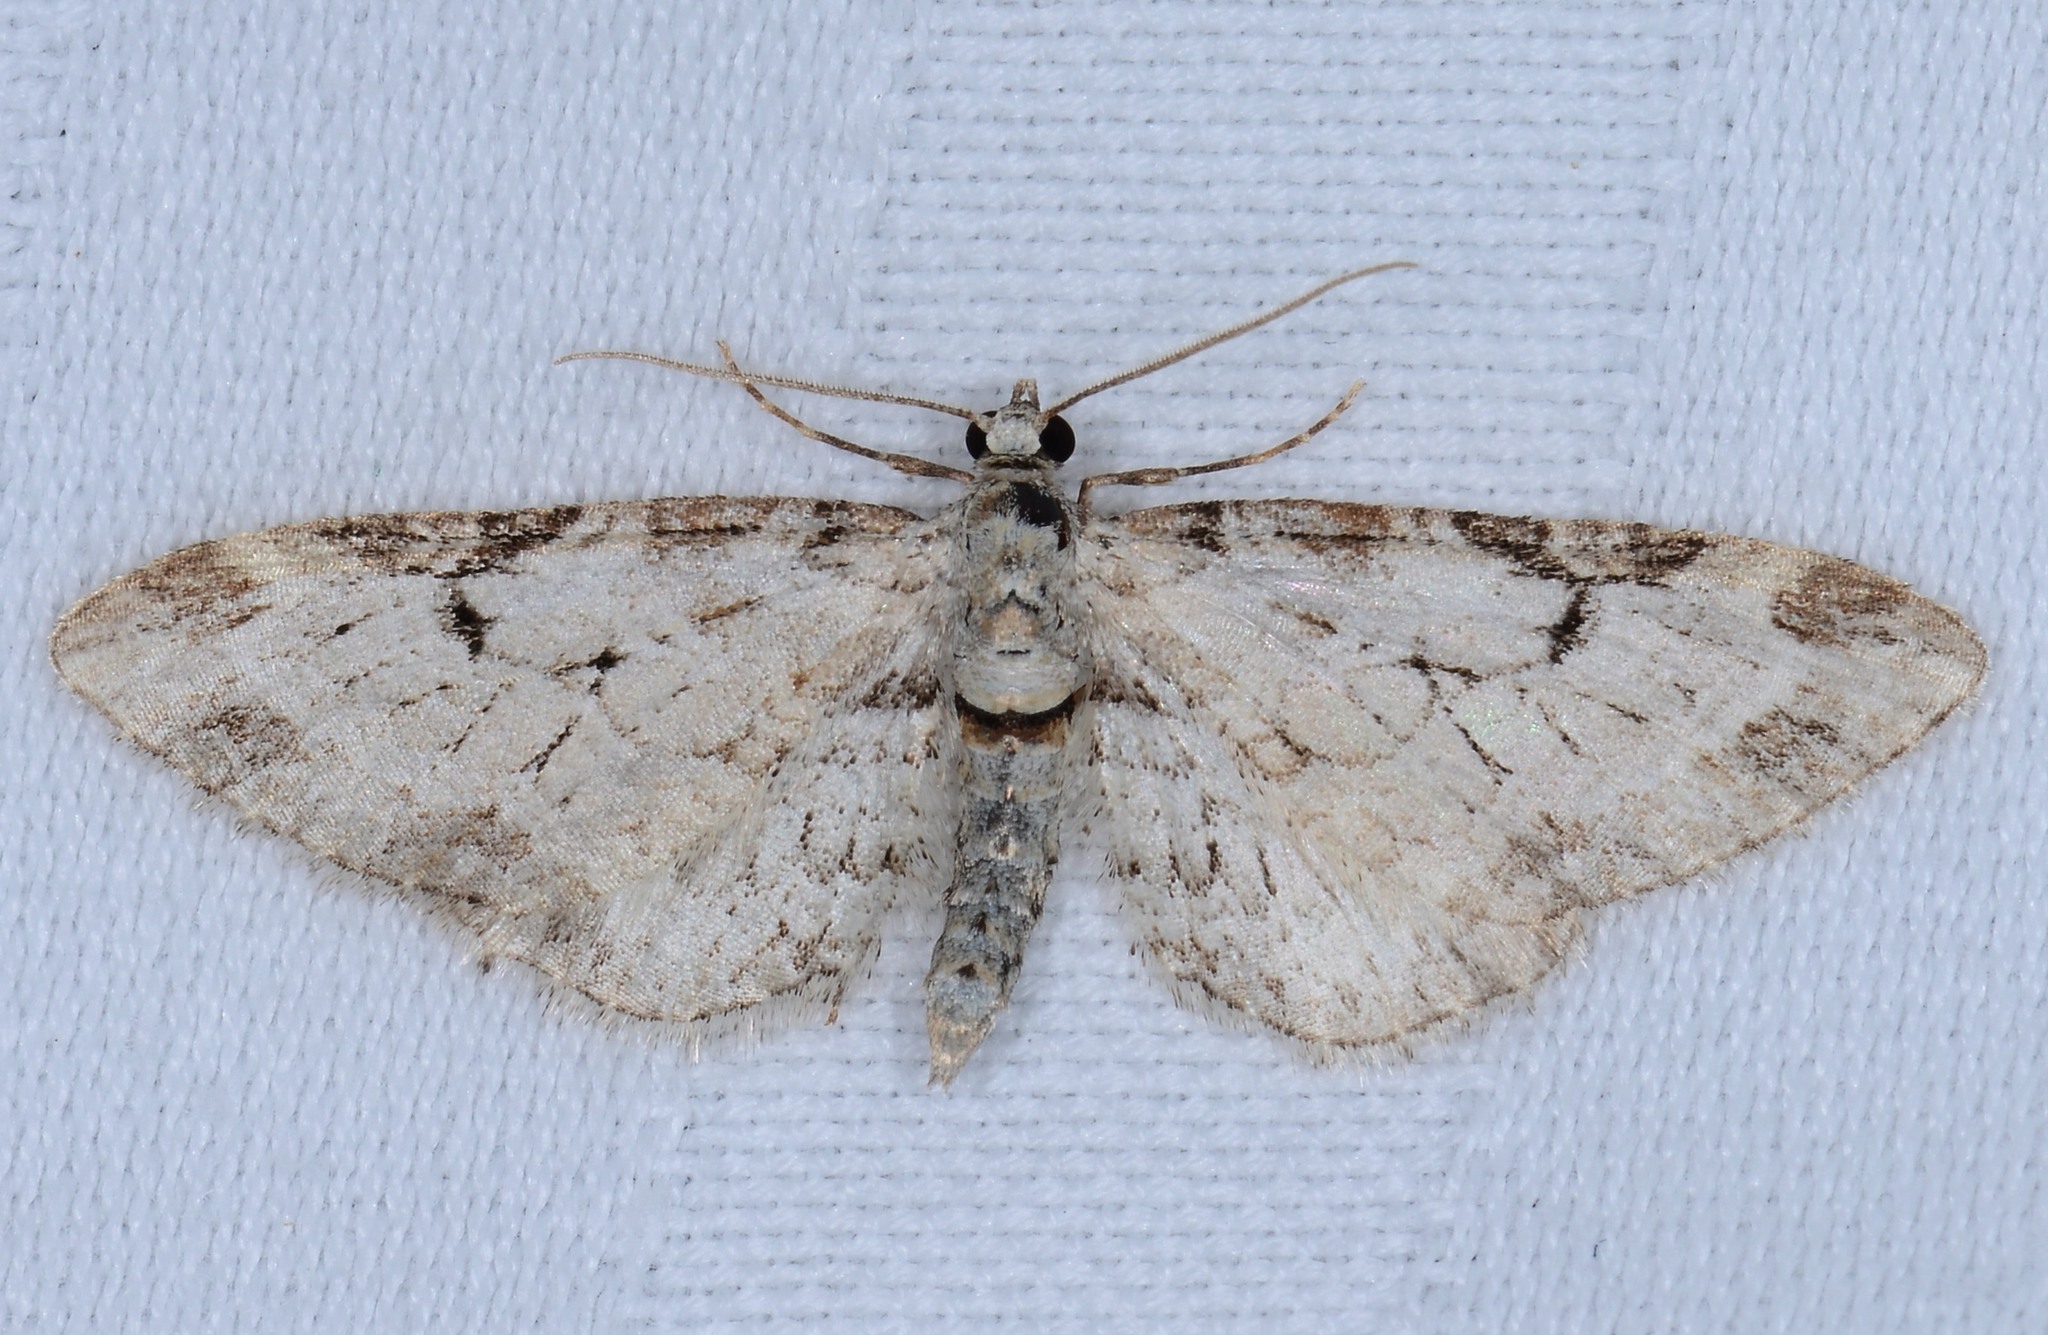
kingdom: Animalia
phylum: Arthropoda
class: Insecta
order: Lepidoptera
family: Geometridae
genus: Eupithecia
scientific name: Eupithecia zelmira
